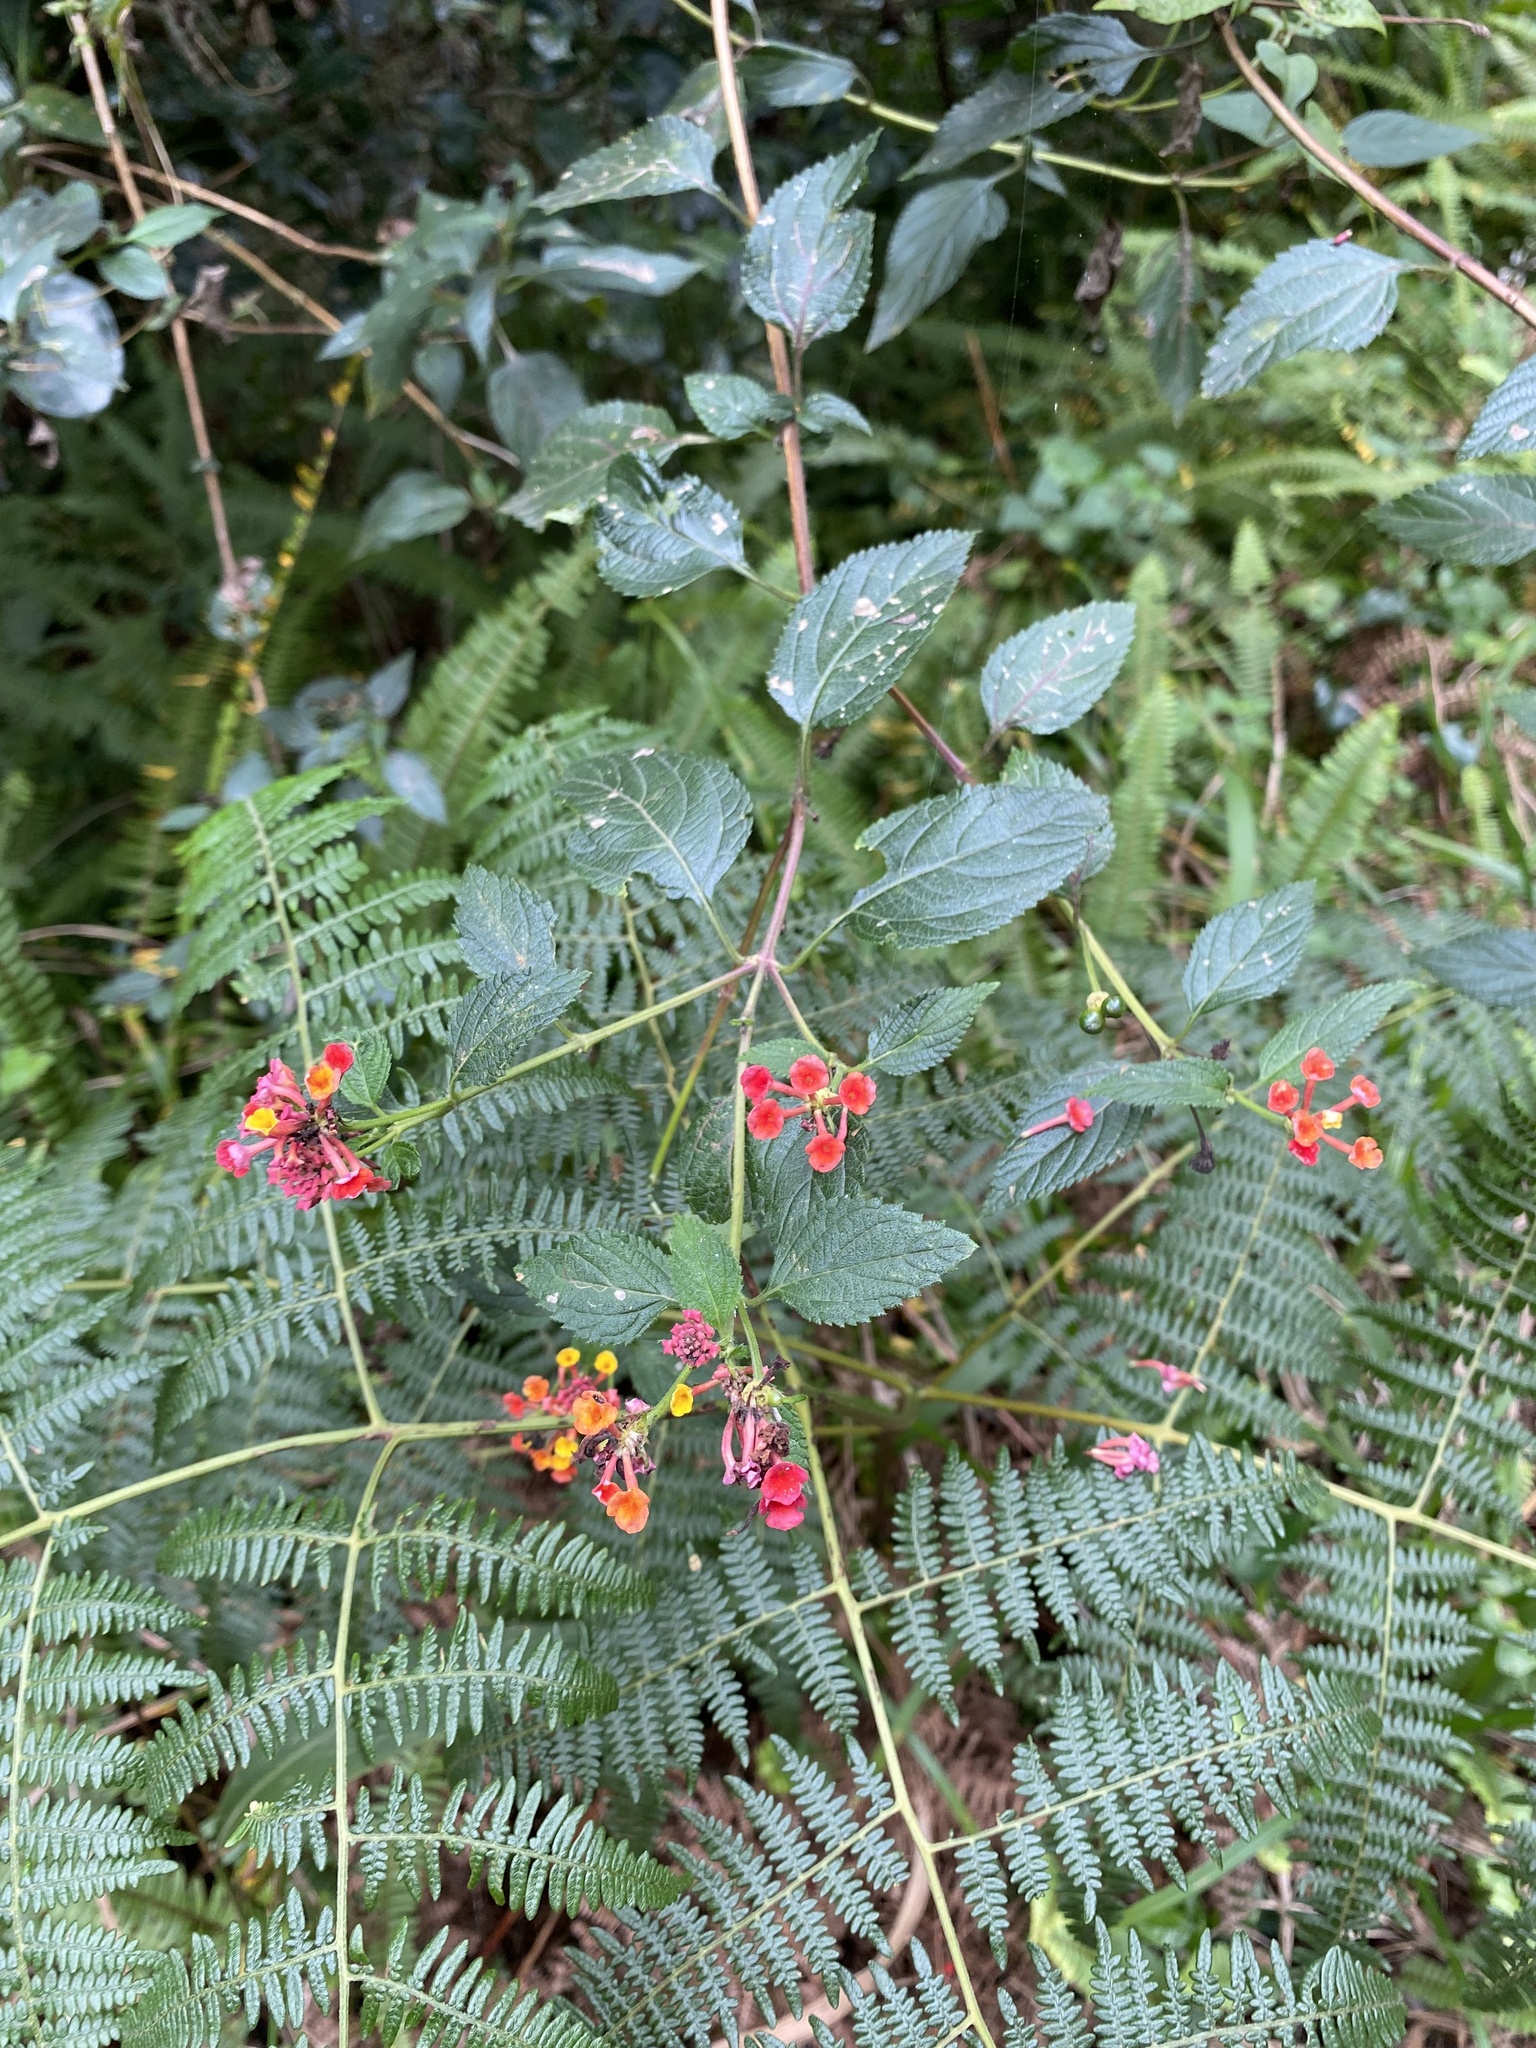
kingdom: Plantae
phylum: Tracheophyta
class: Magnoliopsida
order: Lamiales
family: Verbenaceae
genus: Lantana
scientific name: Lantana camara
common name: Lantana
